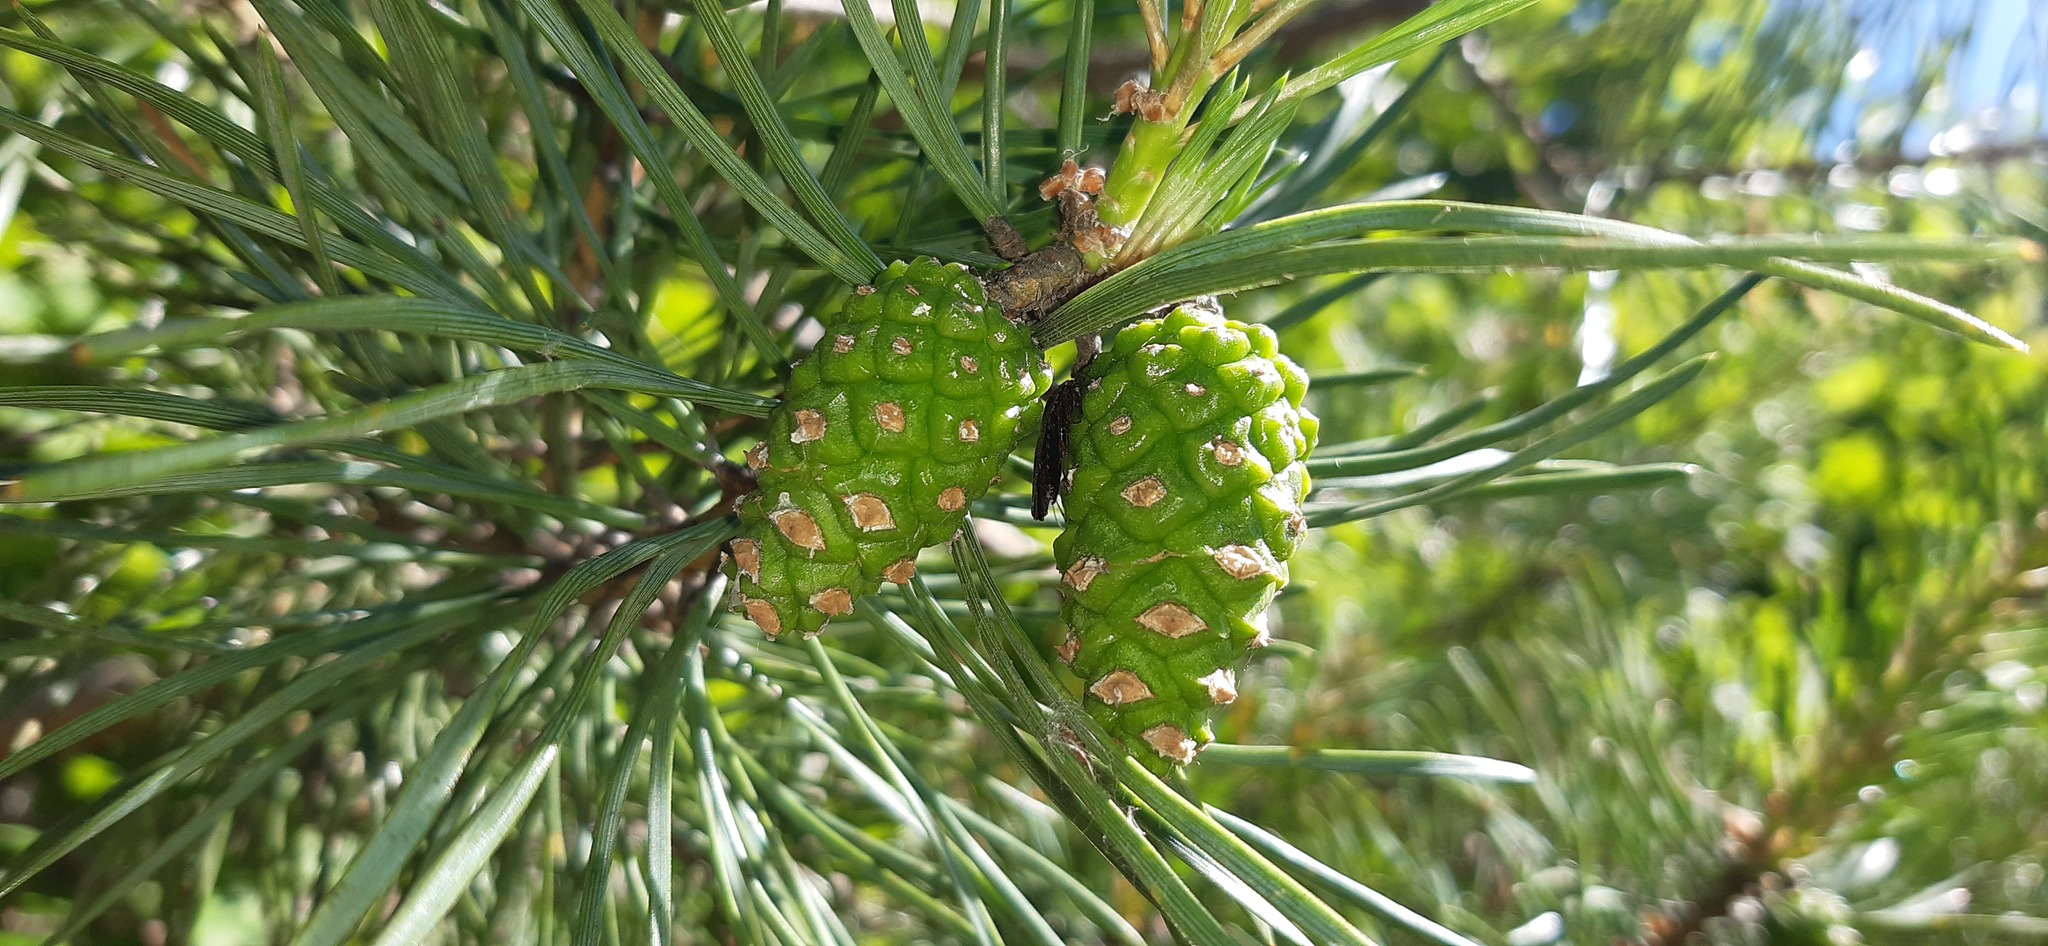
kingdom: Plantae
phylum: Tracheophyta
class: Pinopsida
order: Pinales
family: Pinaceae
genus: Pinus
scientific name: Pinus sylvestris
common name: Scots pine
